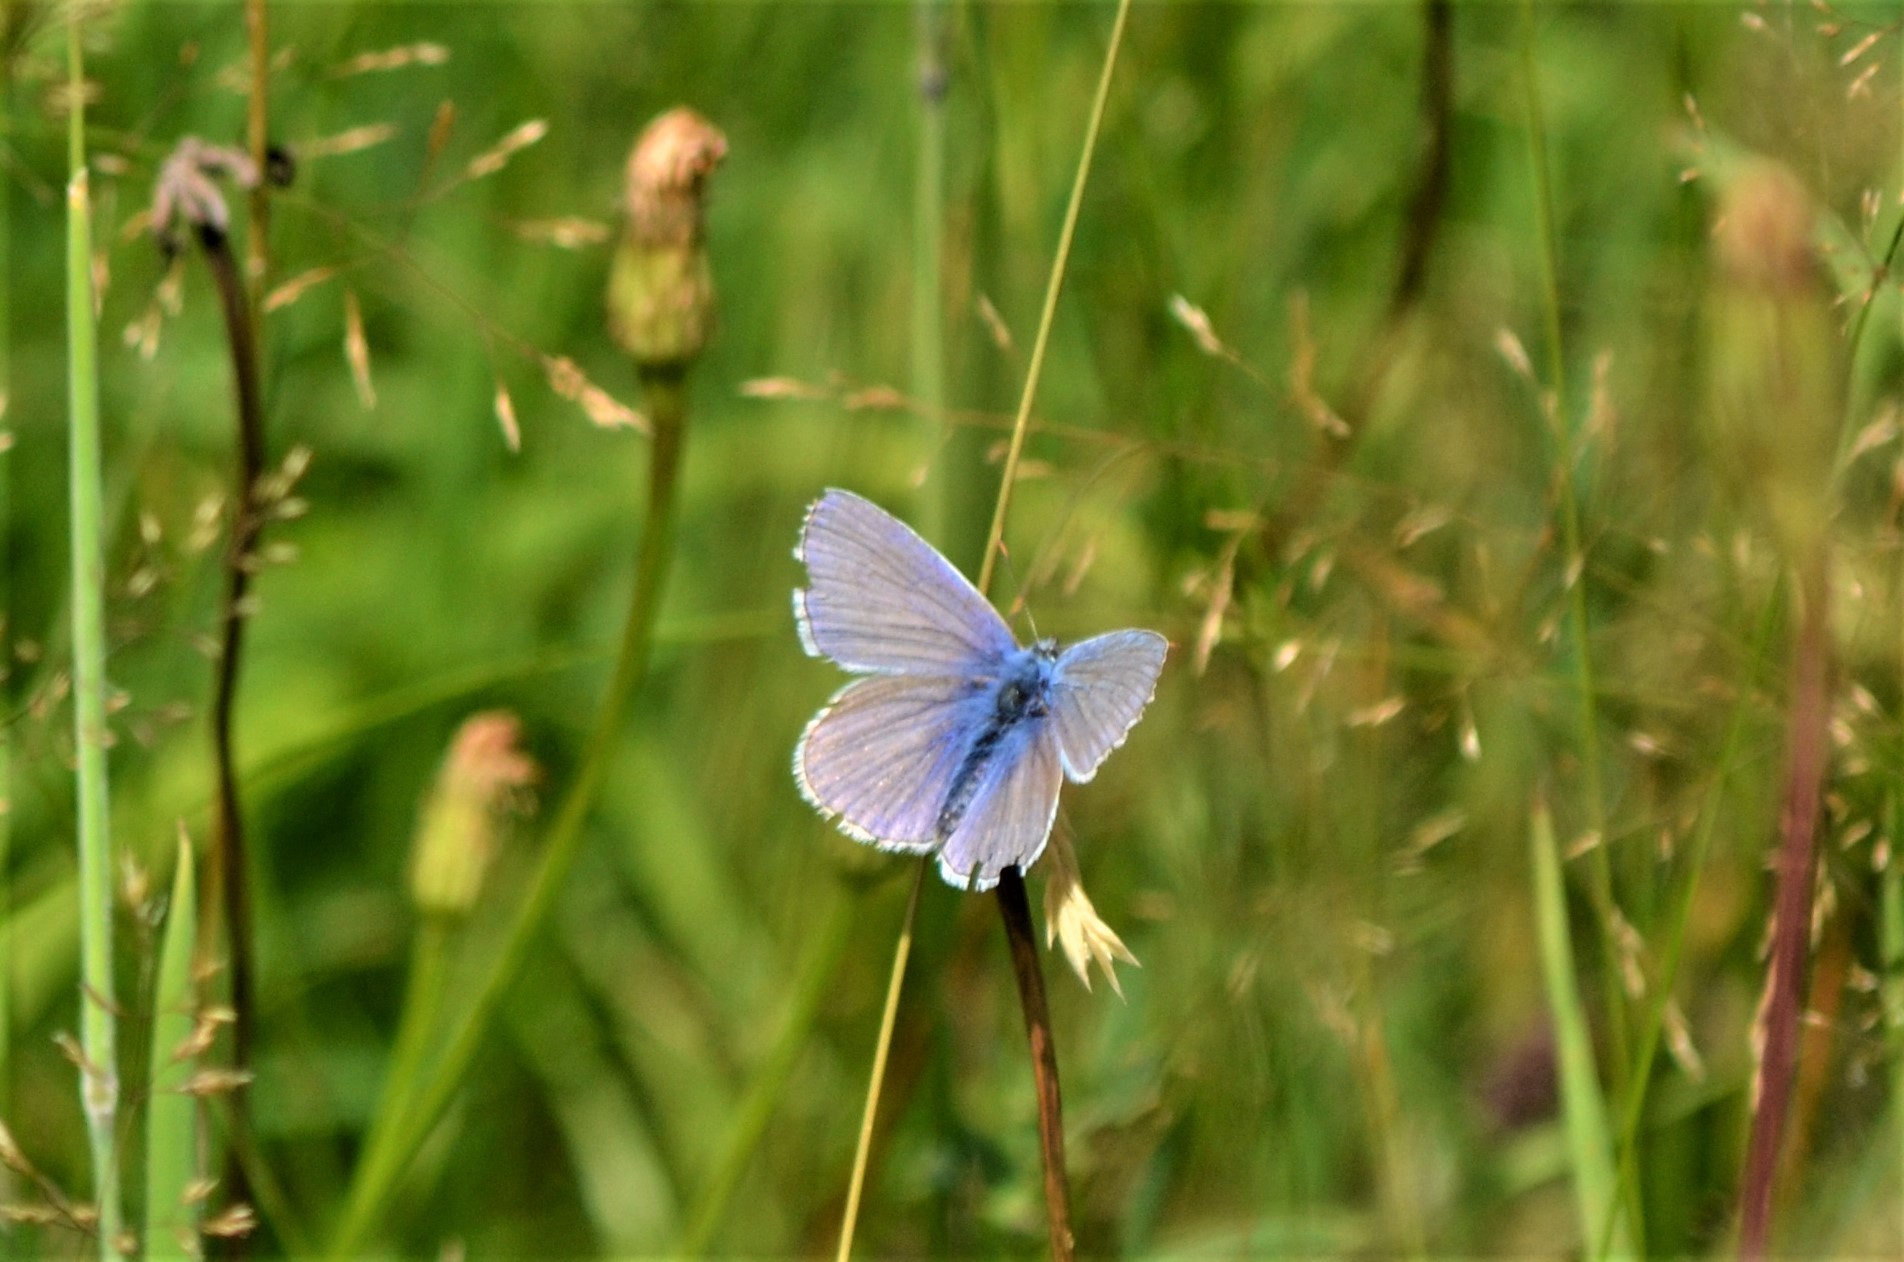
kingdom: Animalia
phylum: Arthropoda
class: Insecta
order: Lepidoptera
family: Lycaenidae
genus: Polyommatus
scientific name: Polyommatus icarus
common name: Common blue
